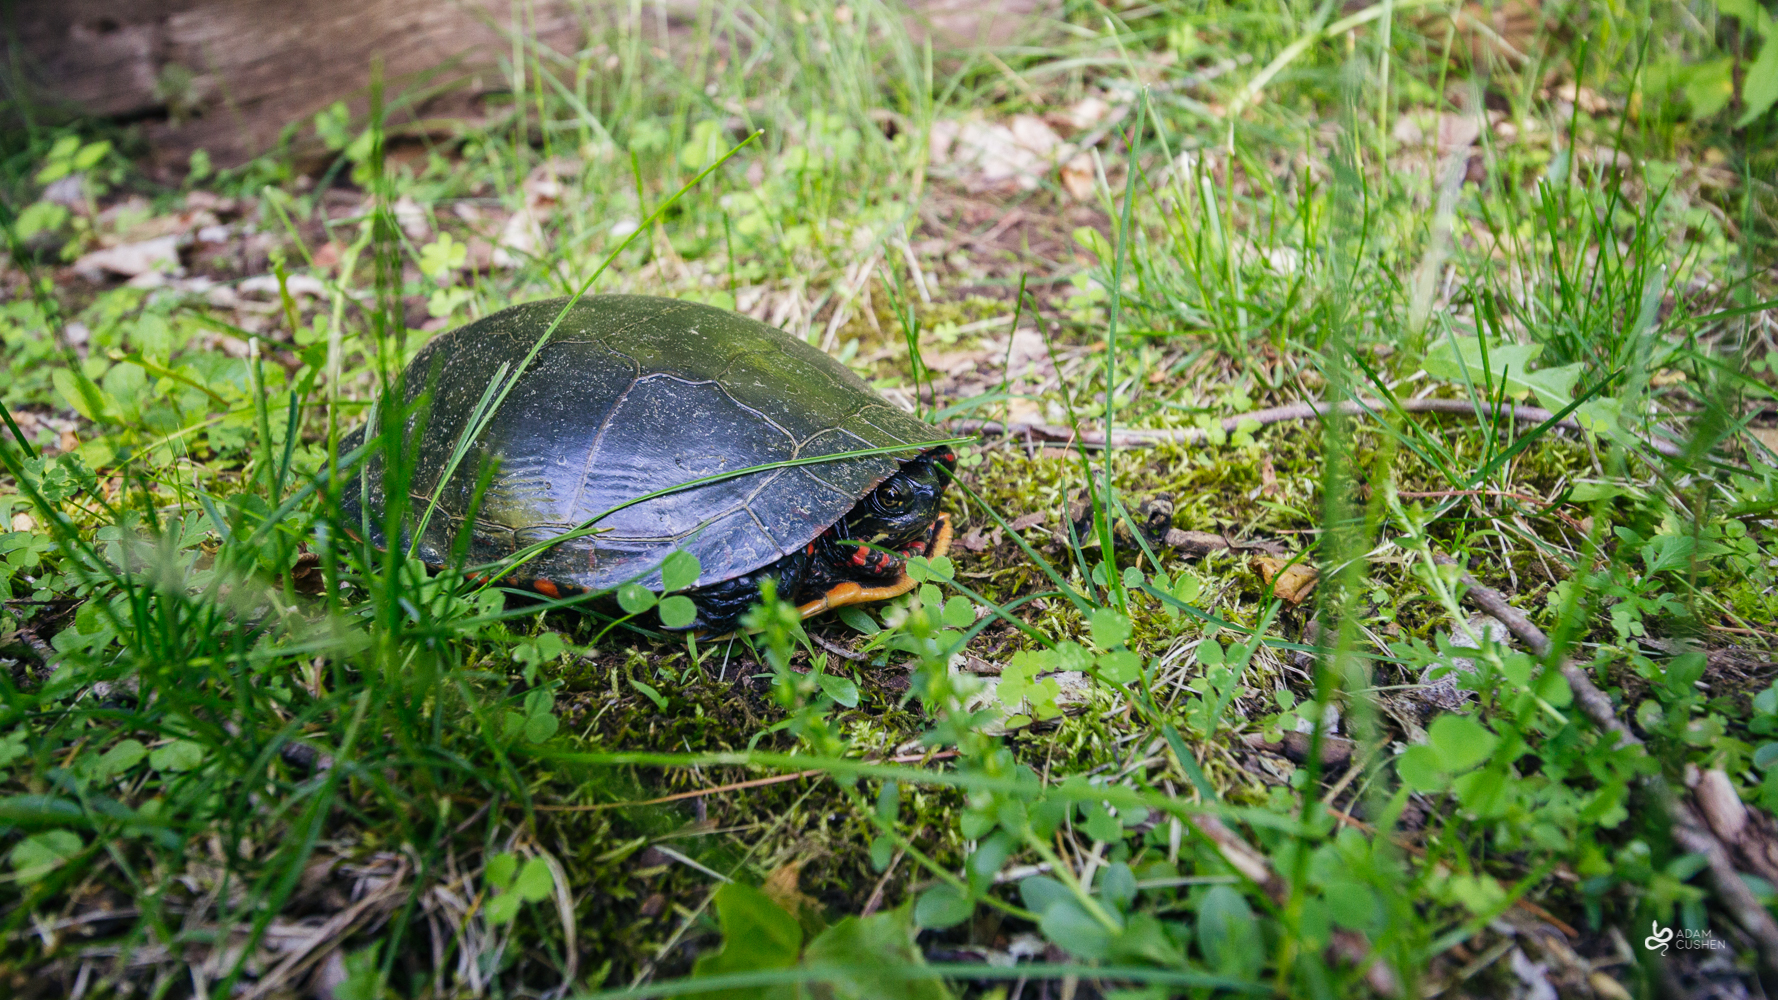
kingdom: Animalia
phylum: Chordata
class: Testudines
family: Emydidae
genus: Chrysemys
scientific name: Chrysemys picta
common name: Painted turtle
